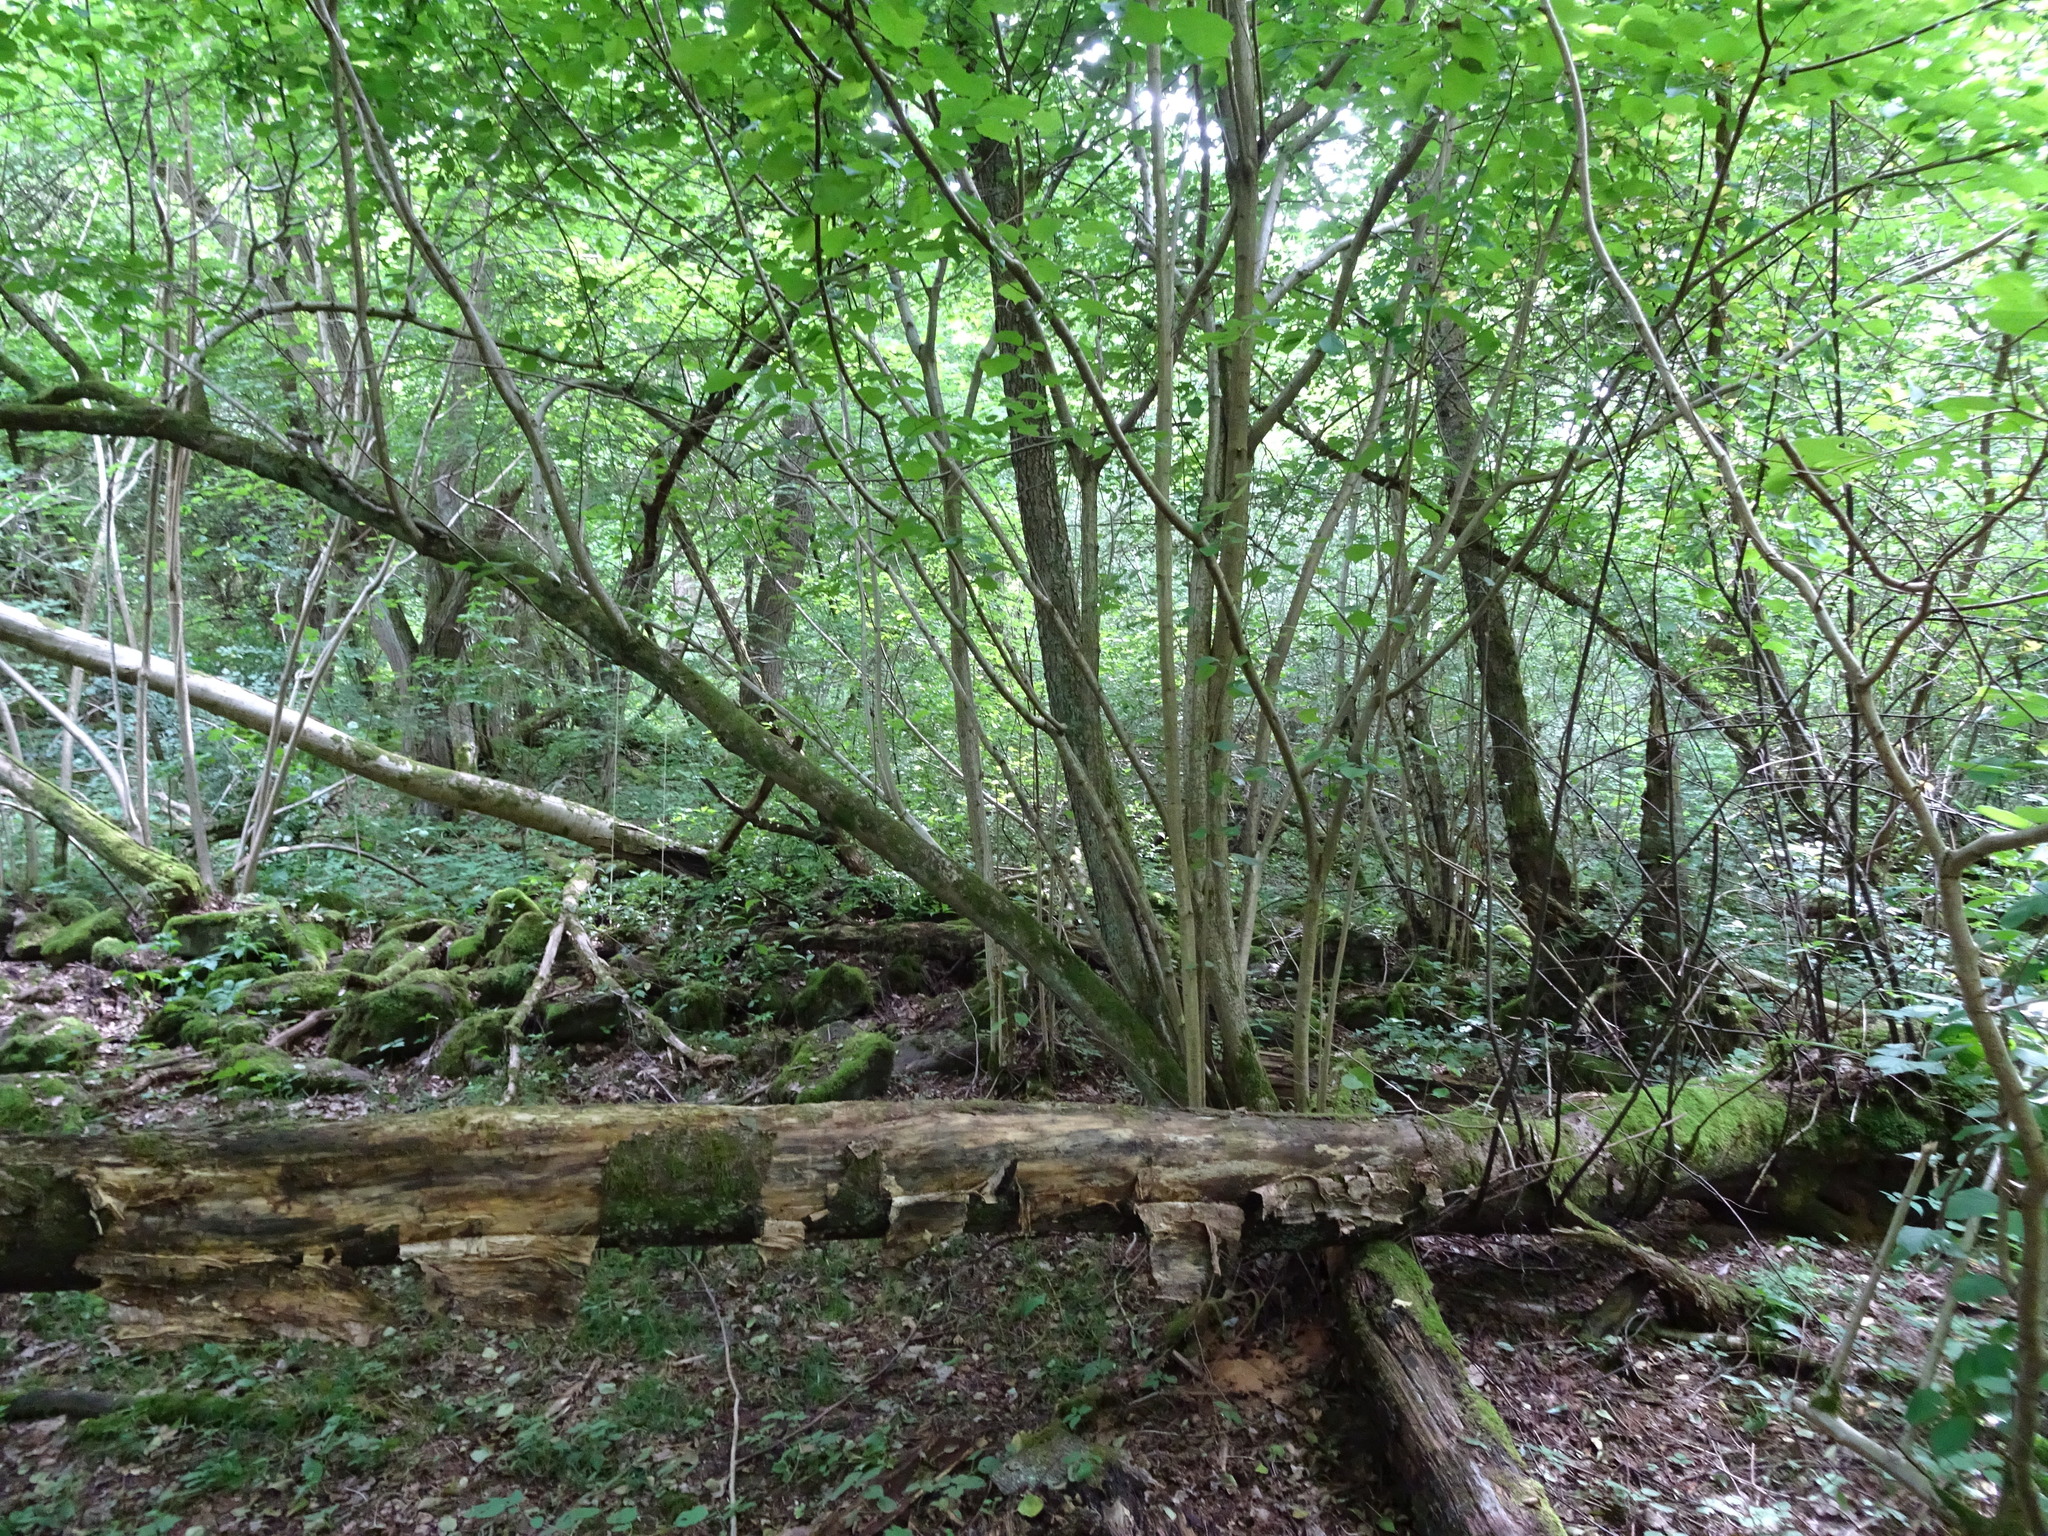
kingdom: Plantae
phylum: Tracheophyta
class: Magnoliopsida
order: Fagales
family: Betulaceae
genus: Corylus
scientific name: Corylus avellana
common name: European hazel
